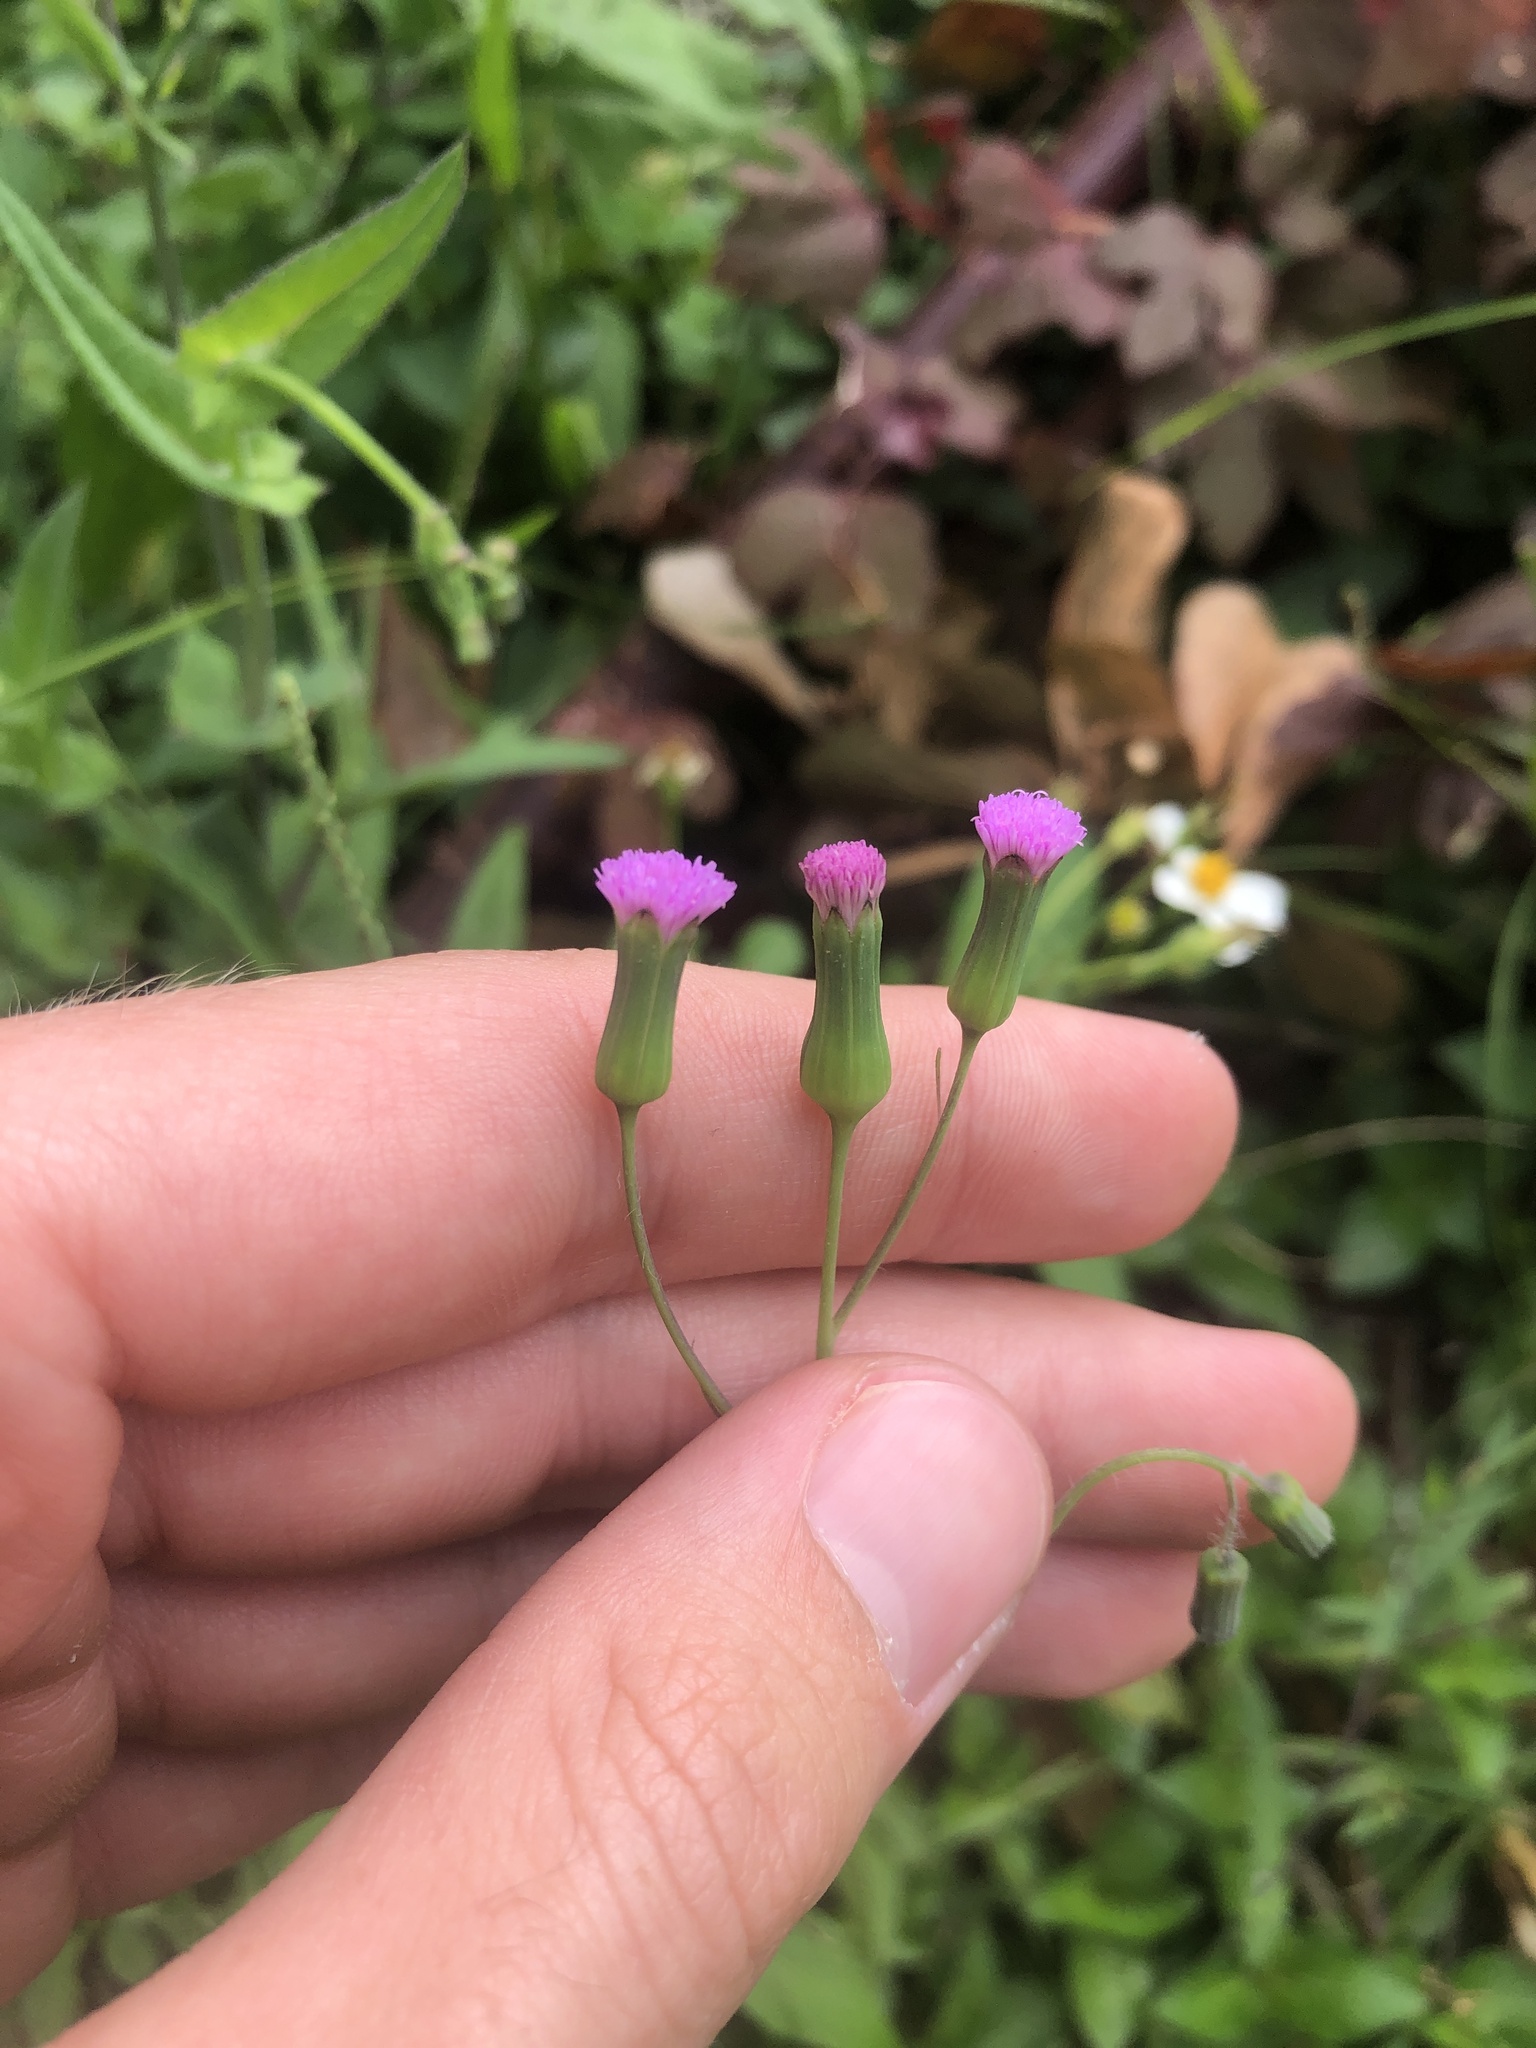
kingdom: Plantae
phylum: Tracheophyta
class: Magnoliopsida
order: Asterales
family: Asteraceae
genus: Emilia
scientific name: Emilia sonchifolia
